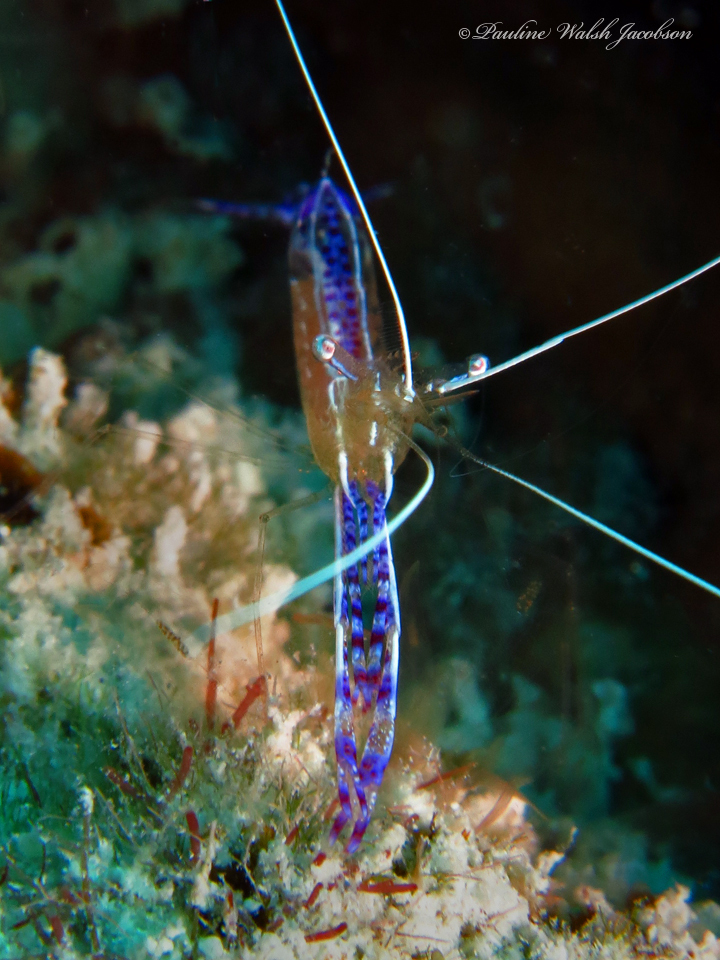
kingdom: Animalia
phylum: Arthropoda
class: Malacostraca
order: Decapoda
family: Palaemonidae
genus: Ancylomenes
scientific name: Ancylomenes pedersoni
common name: Pederson's cleaning shrimp
